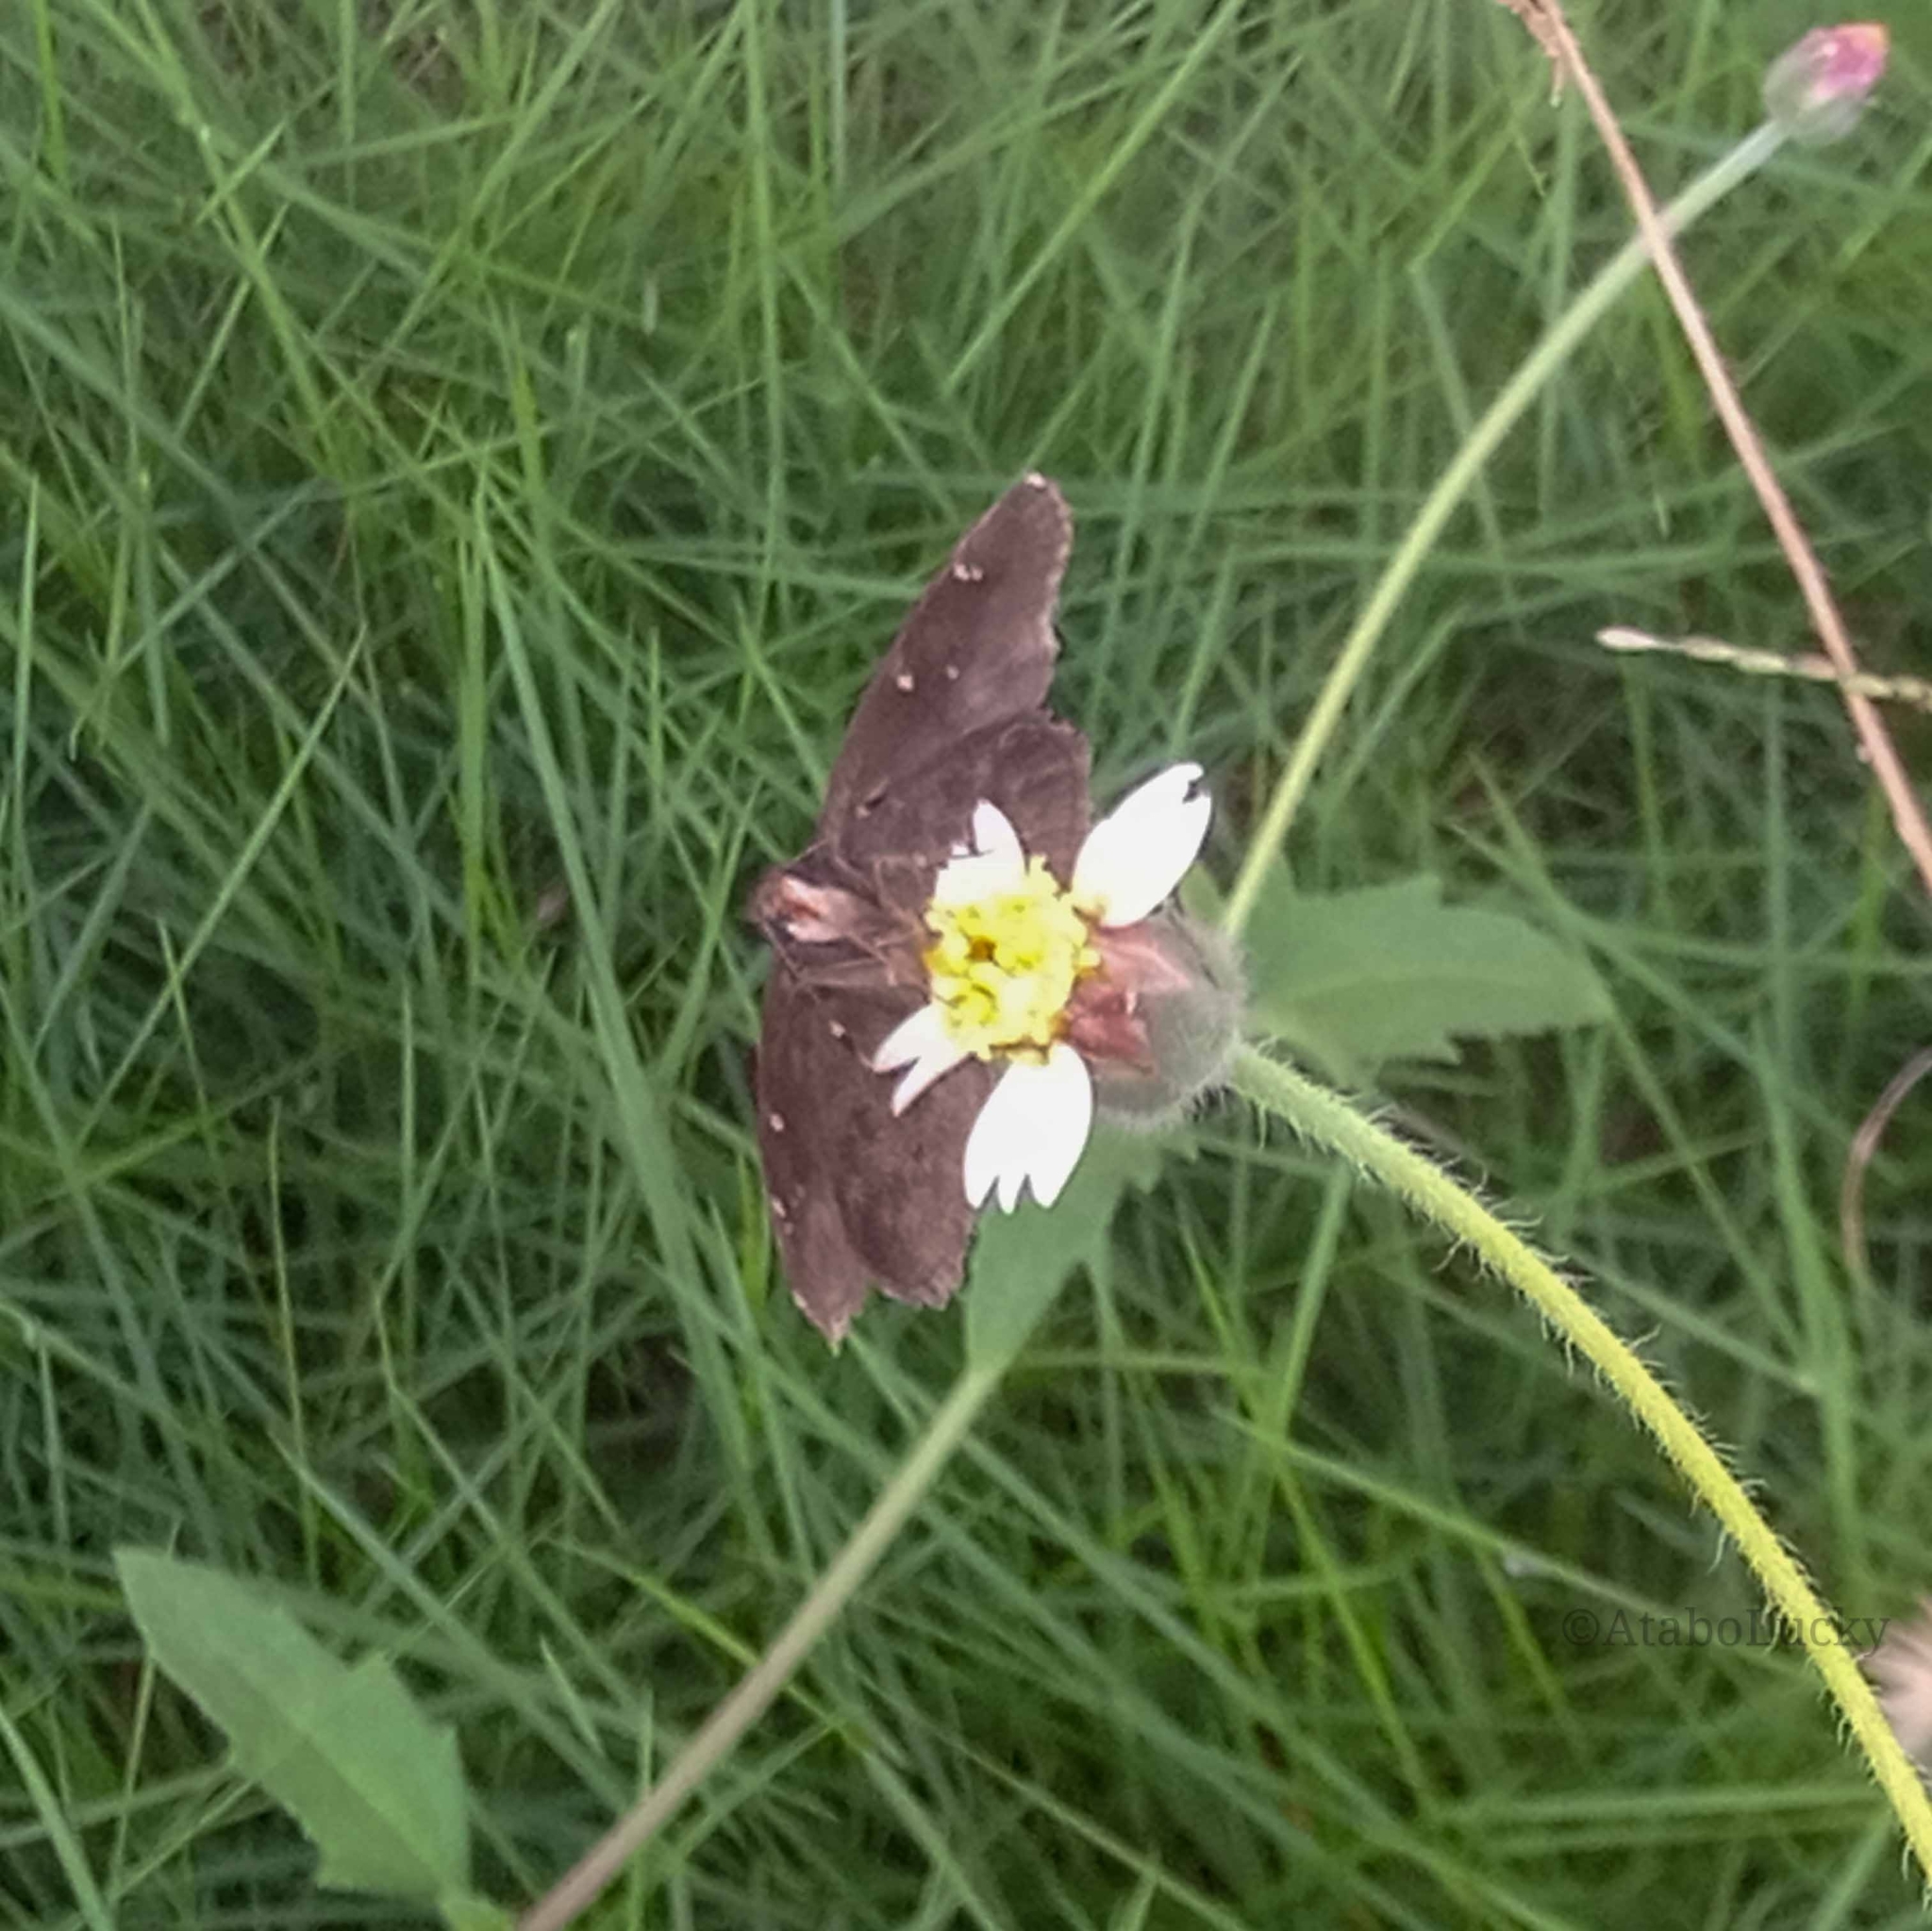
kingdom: Animalia
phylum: Arthropoda
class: Insecta
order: Lepidoptera
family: Hesperiidae
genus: Sarangesa
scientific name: Sarangesa laelius
